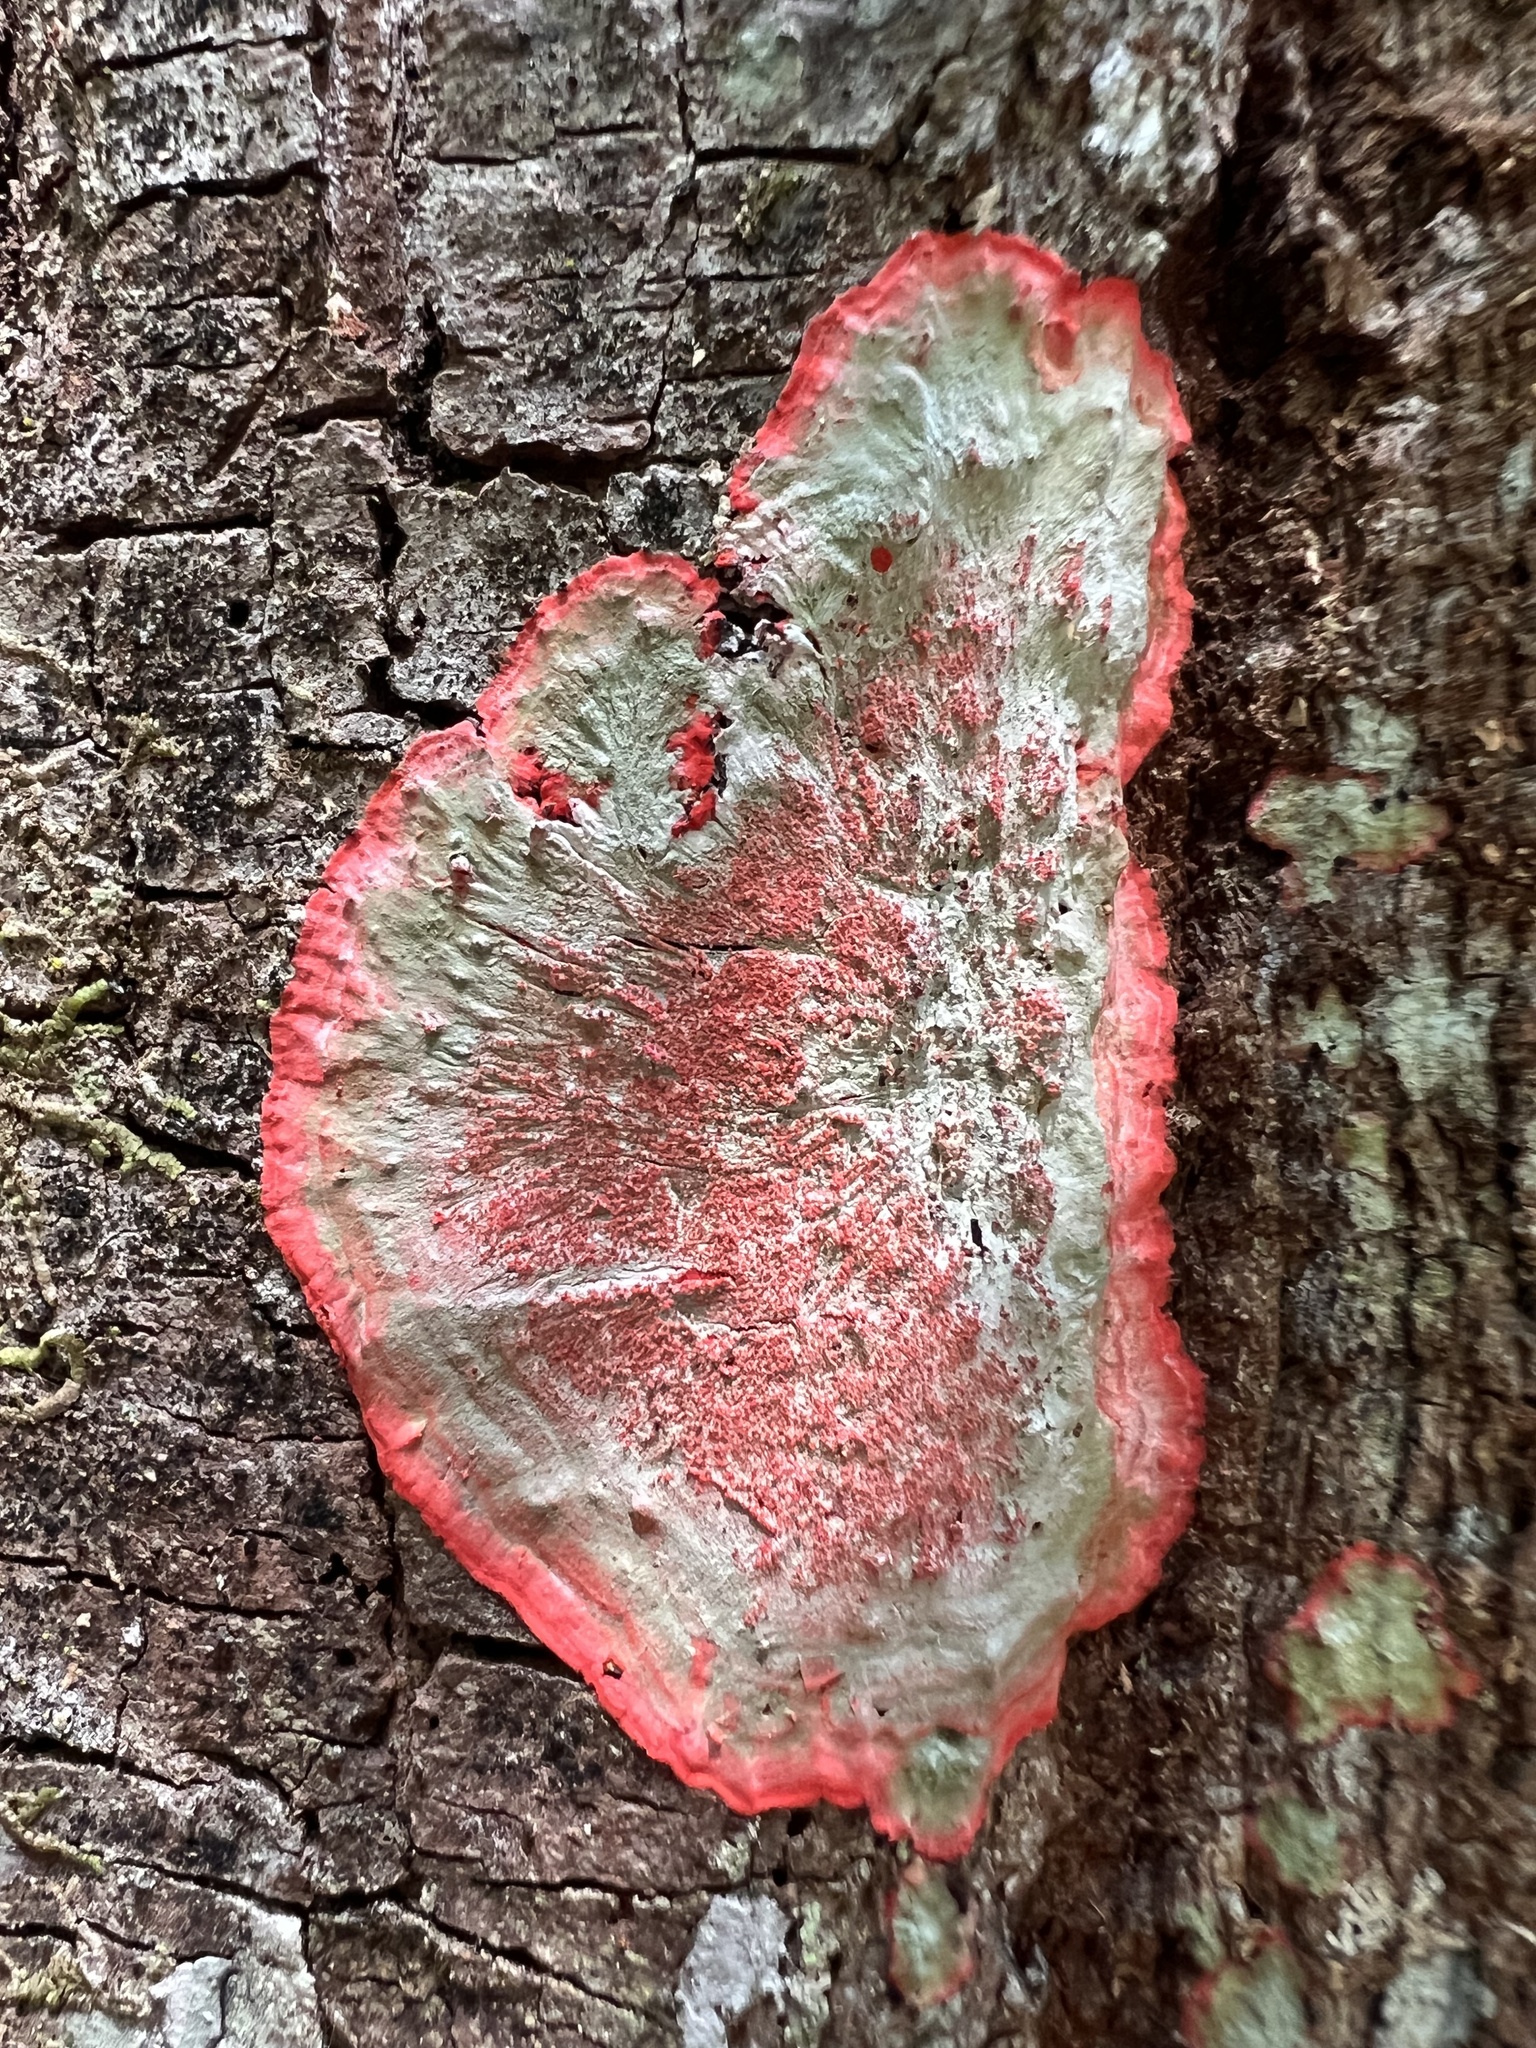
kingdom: Fungi
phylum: Ascomycota
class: Arthoniomycetes
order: Arthoniales
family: Arthoniaceae
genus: Herpothallon
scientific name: Herpothallon rubrocinctum
